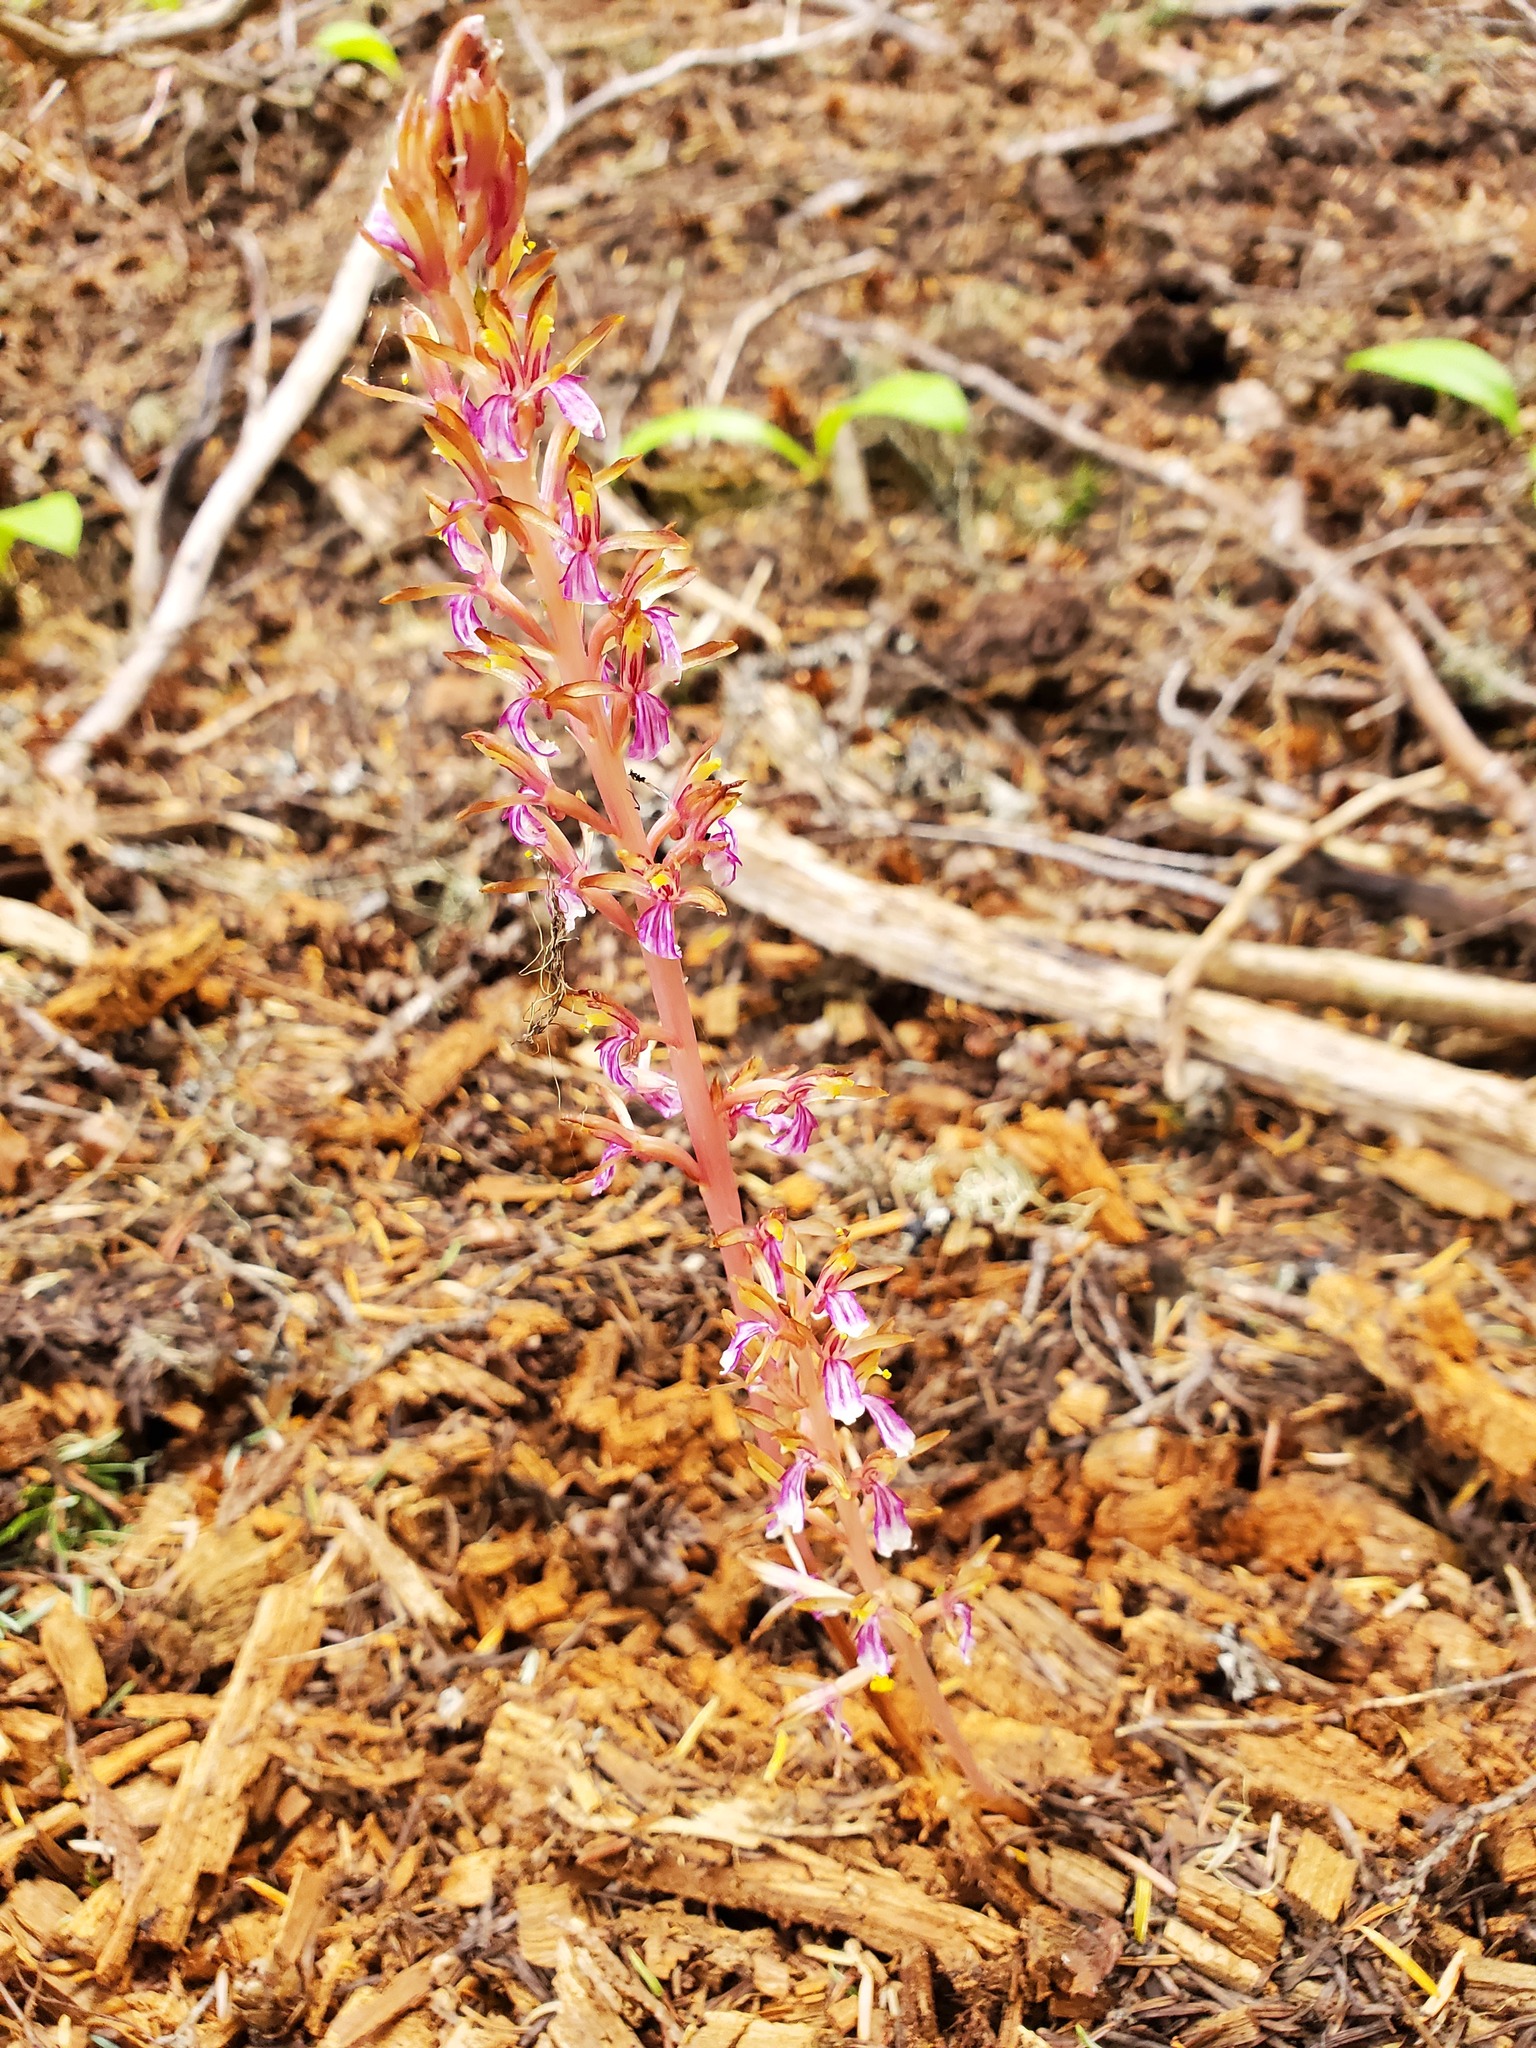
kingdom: Plantae
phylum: Tracheophyta
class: Liliopsida
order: Asparagales
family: Orchidaceae
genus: Corallorhiza
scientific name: Corallorhiza mertensiana
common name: Pacific coralroot
